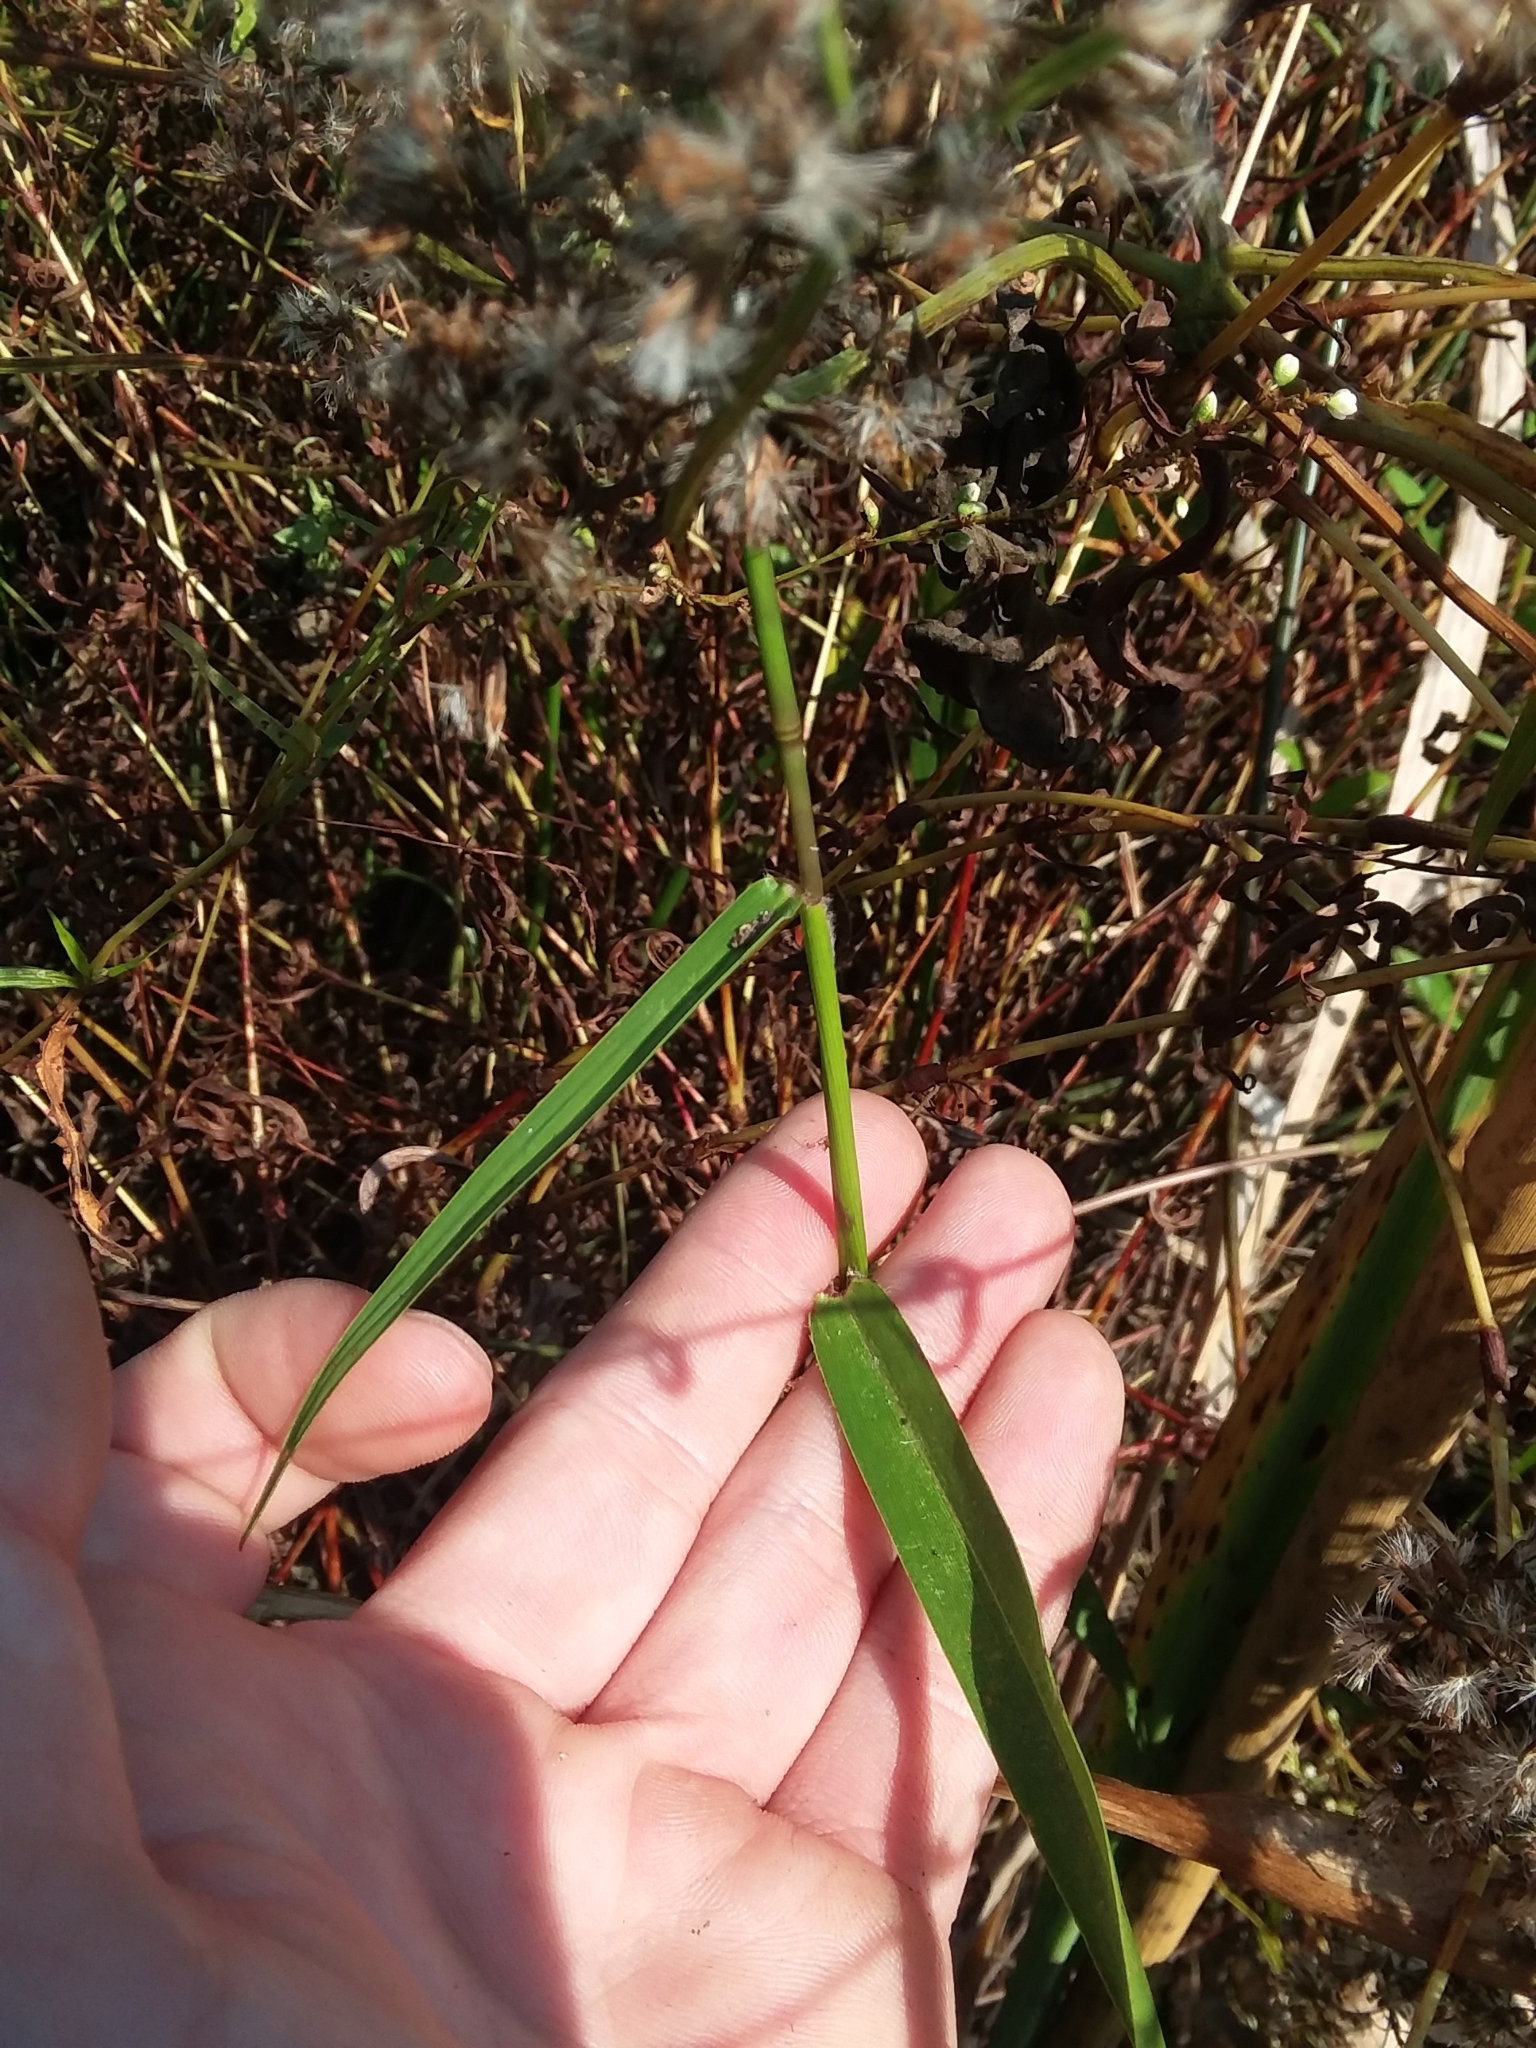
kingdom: Plantae
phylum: Tracheophyta
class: Liliopsida
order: Poales
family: Poaceae
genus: Sacciolepis
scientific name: Sacciolepis striata
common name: American cupscale
